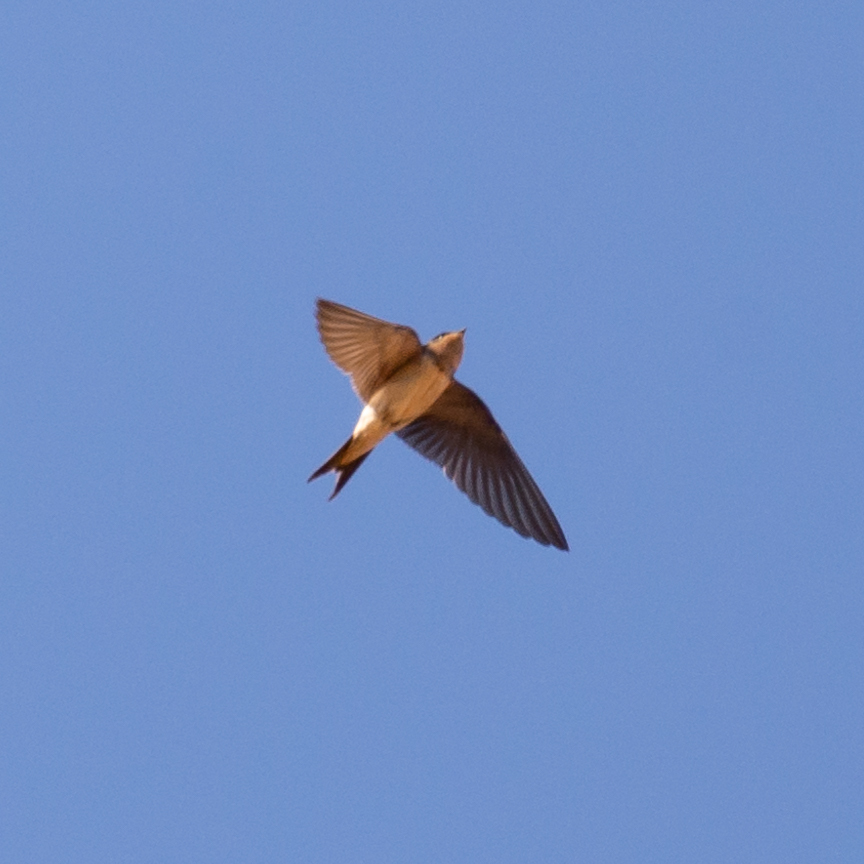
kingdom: Animalia
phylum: Chordata
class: Aves
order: Passeriformes
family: Hirundinidae
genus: Hirundo
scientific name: Hirundo rustica
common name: Barn swallow
